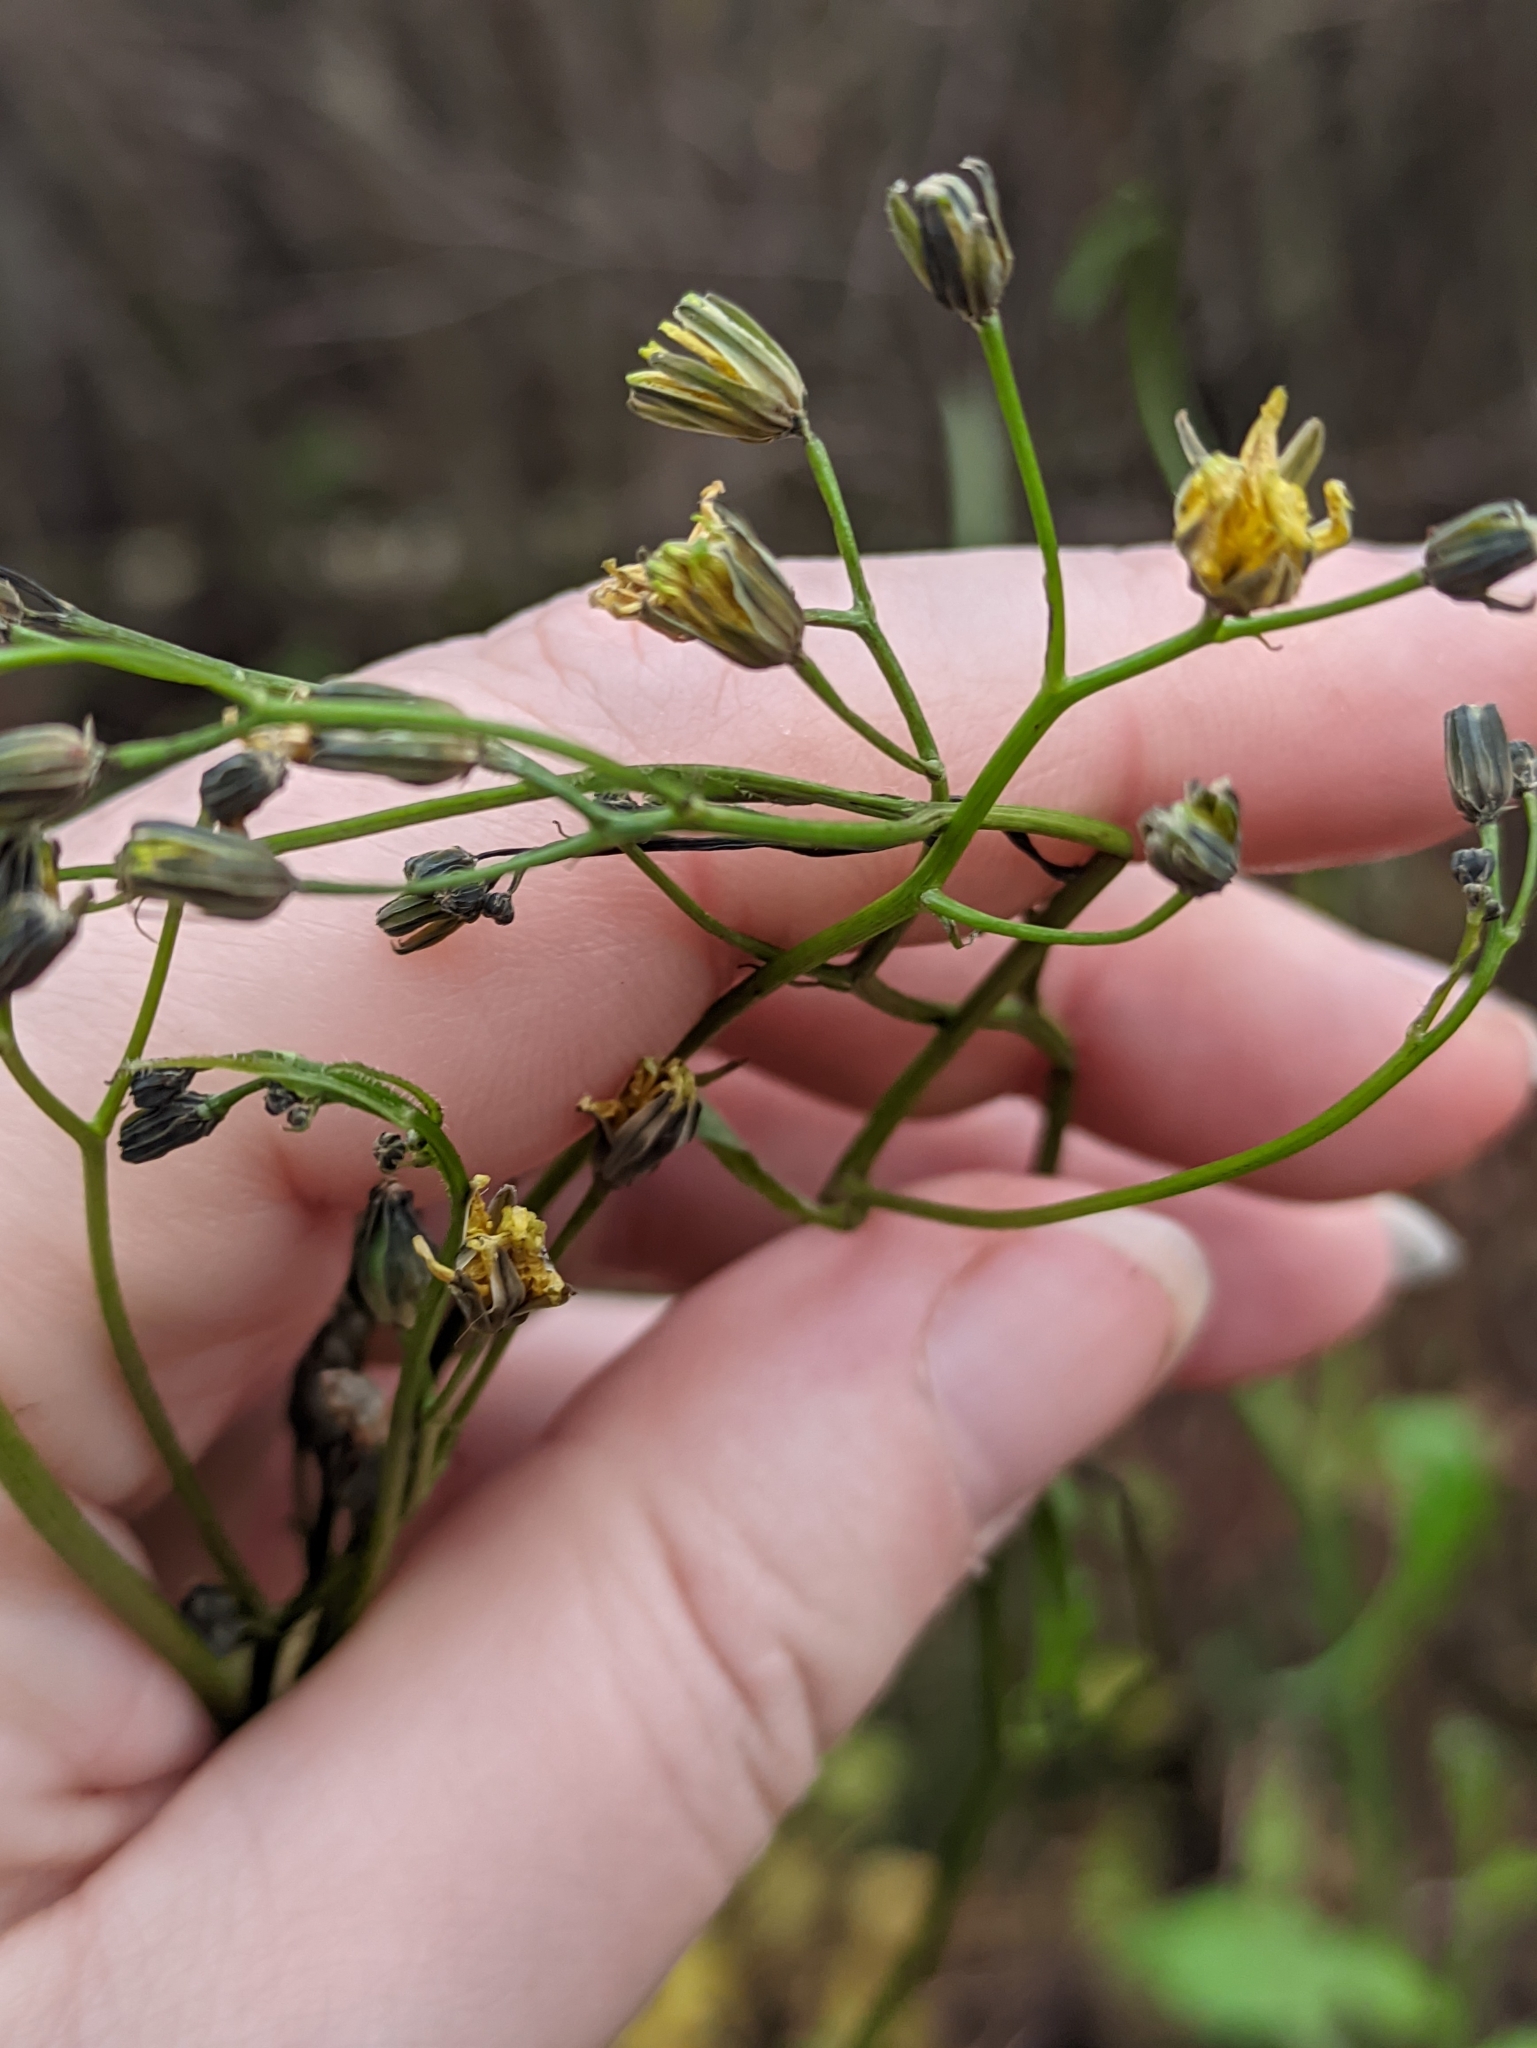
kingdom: Plantae
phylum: Tracheophyta
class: Magnoliopsida
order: Asterales
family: Asteraceae
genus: Lapsana
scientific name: Lapsana communis
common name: Nipplewort
